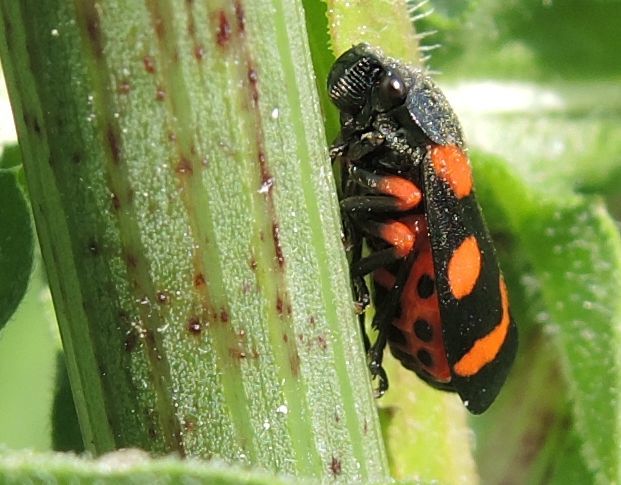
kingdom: Animalia
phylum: Arthropoda
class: Insecta
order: Hemiptera
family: Cercopidae
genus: Cercopis
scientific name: Cercopis intermedia
